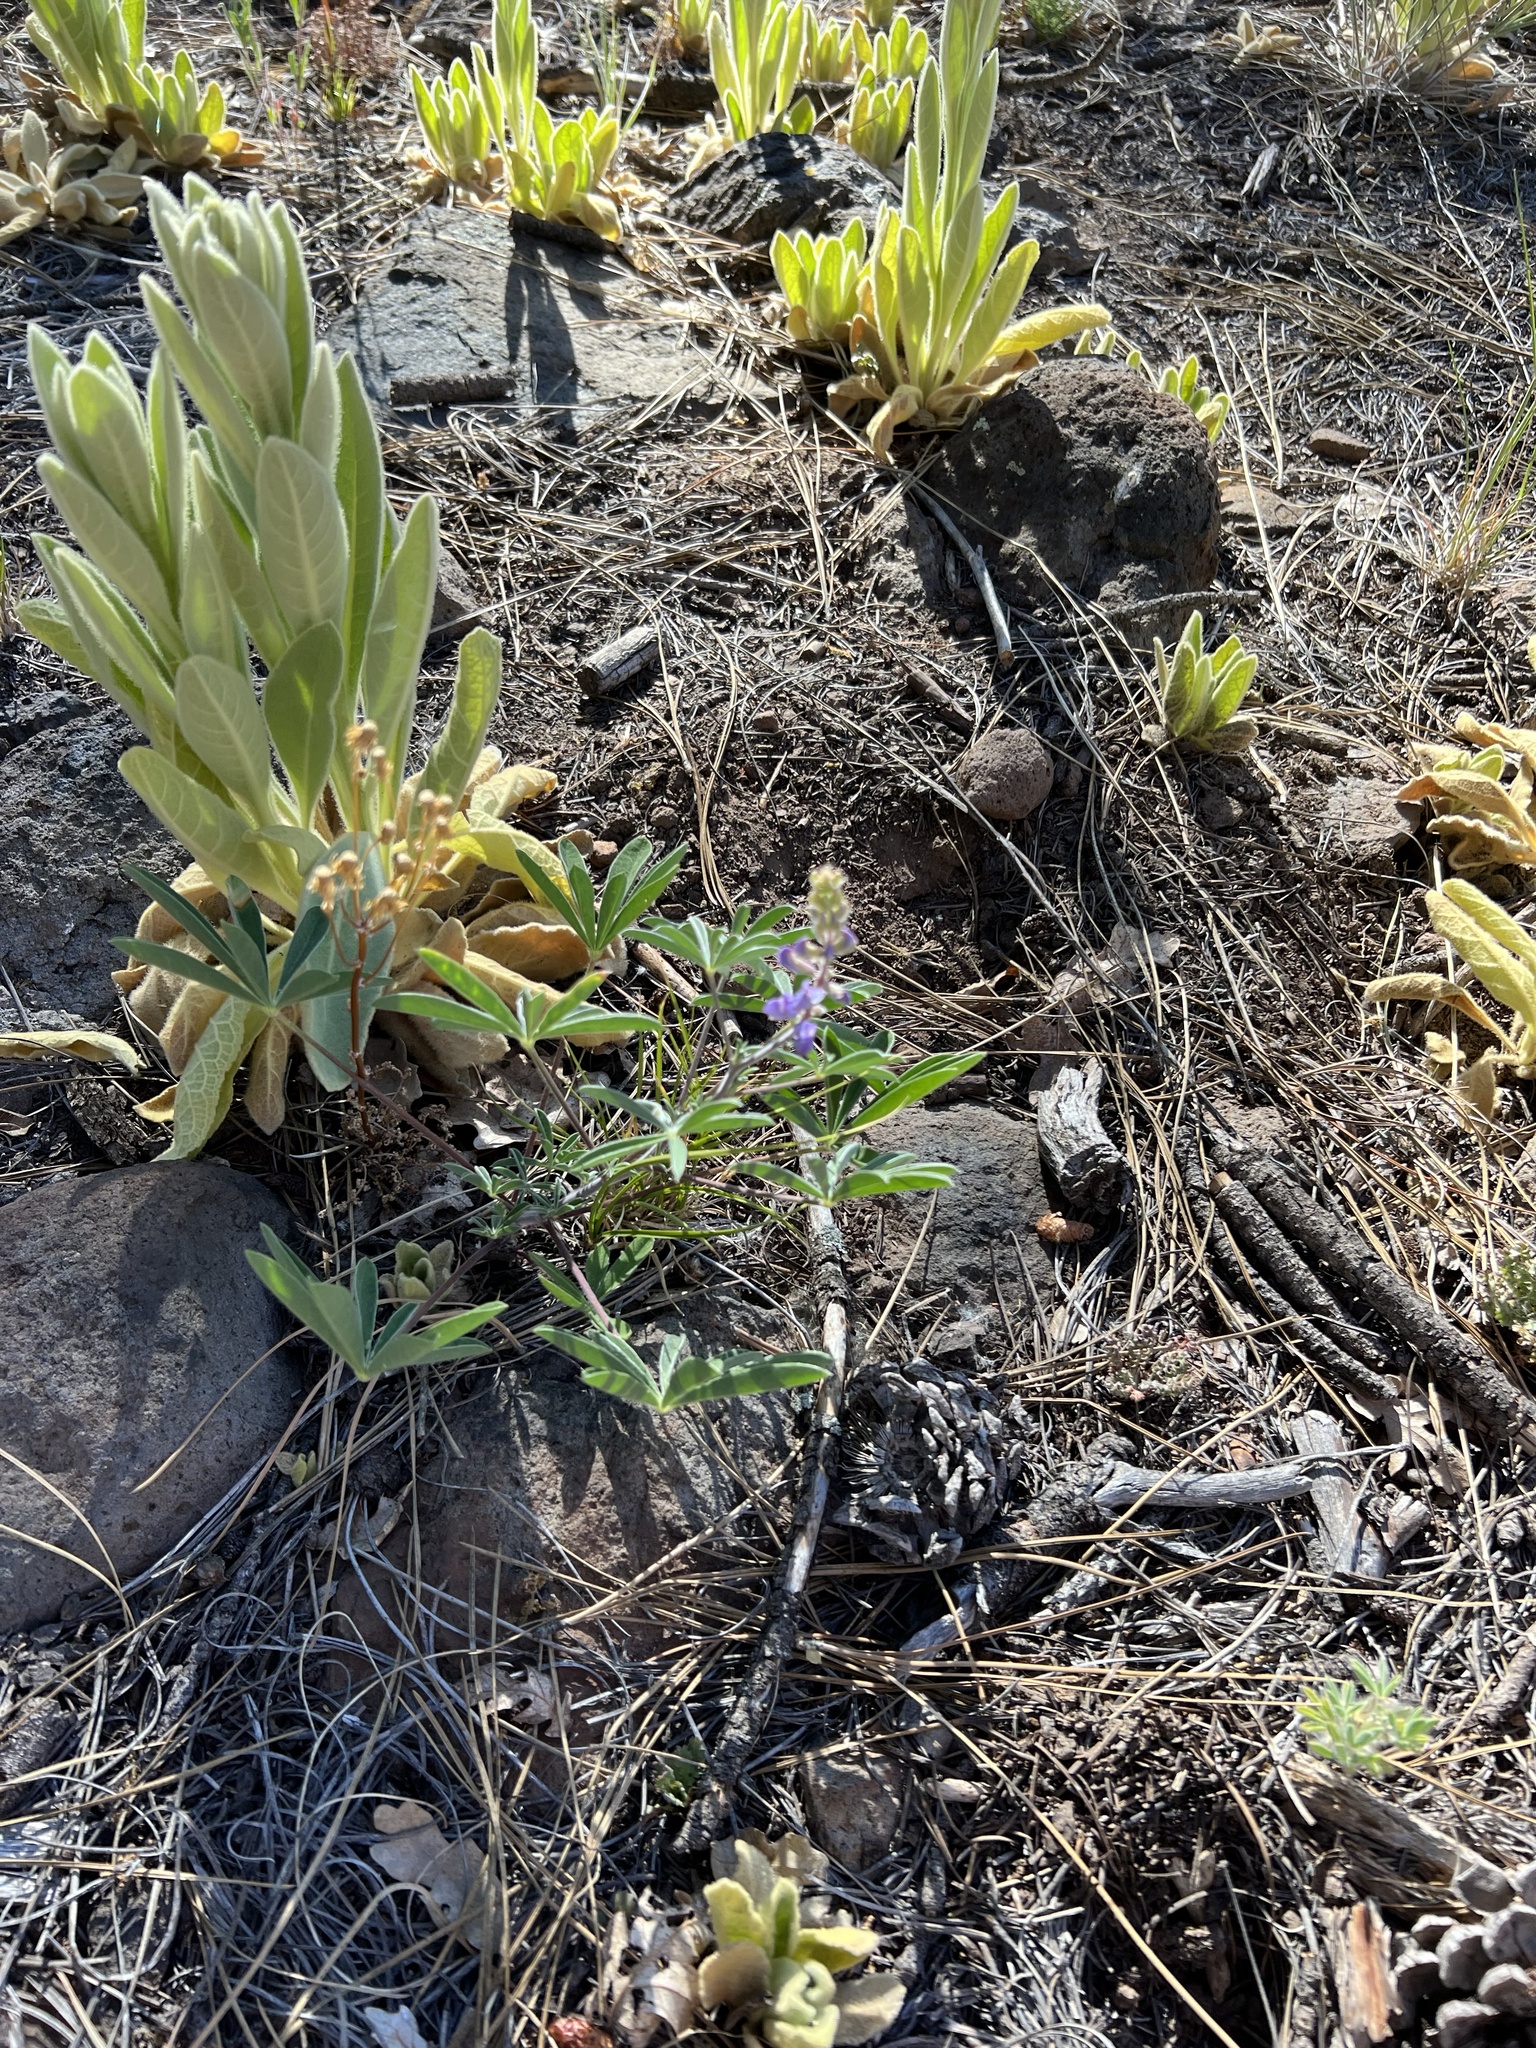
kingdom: Plantae
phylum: Tracheophyta
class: Magnoliopsida
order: Fabales
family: Fabaceae
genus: Lupinus
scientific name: Lupinus argenteus
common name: Silvery lupine
